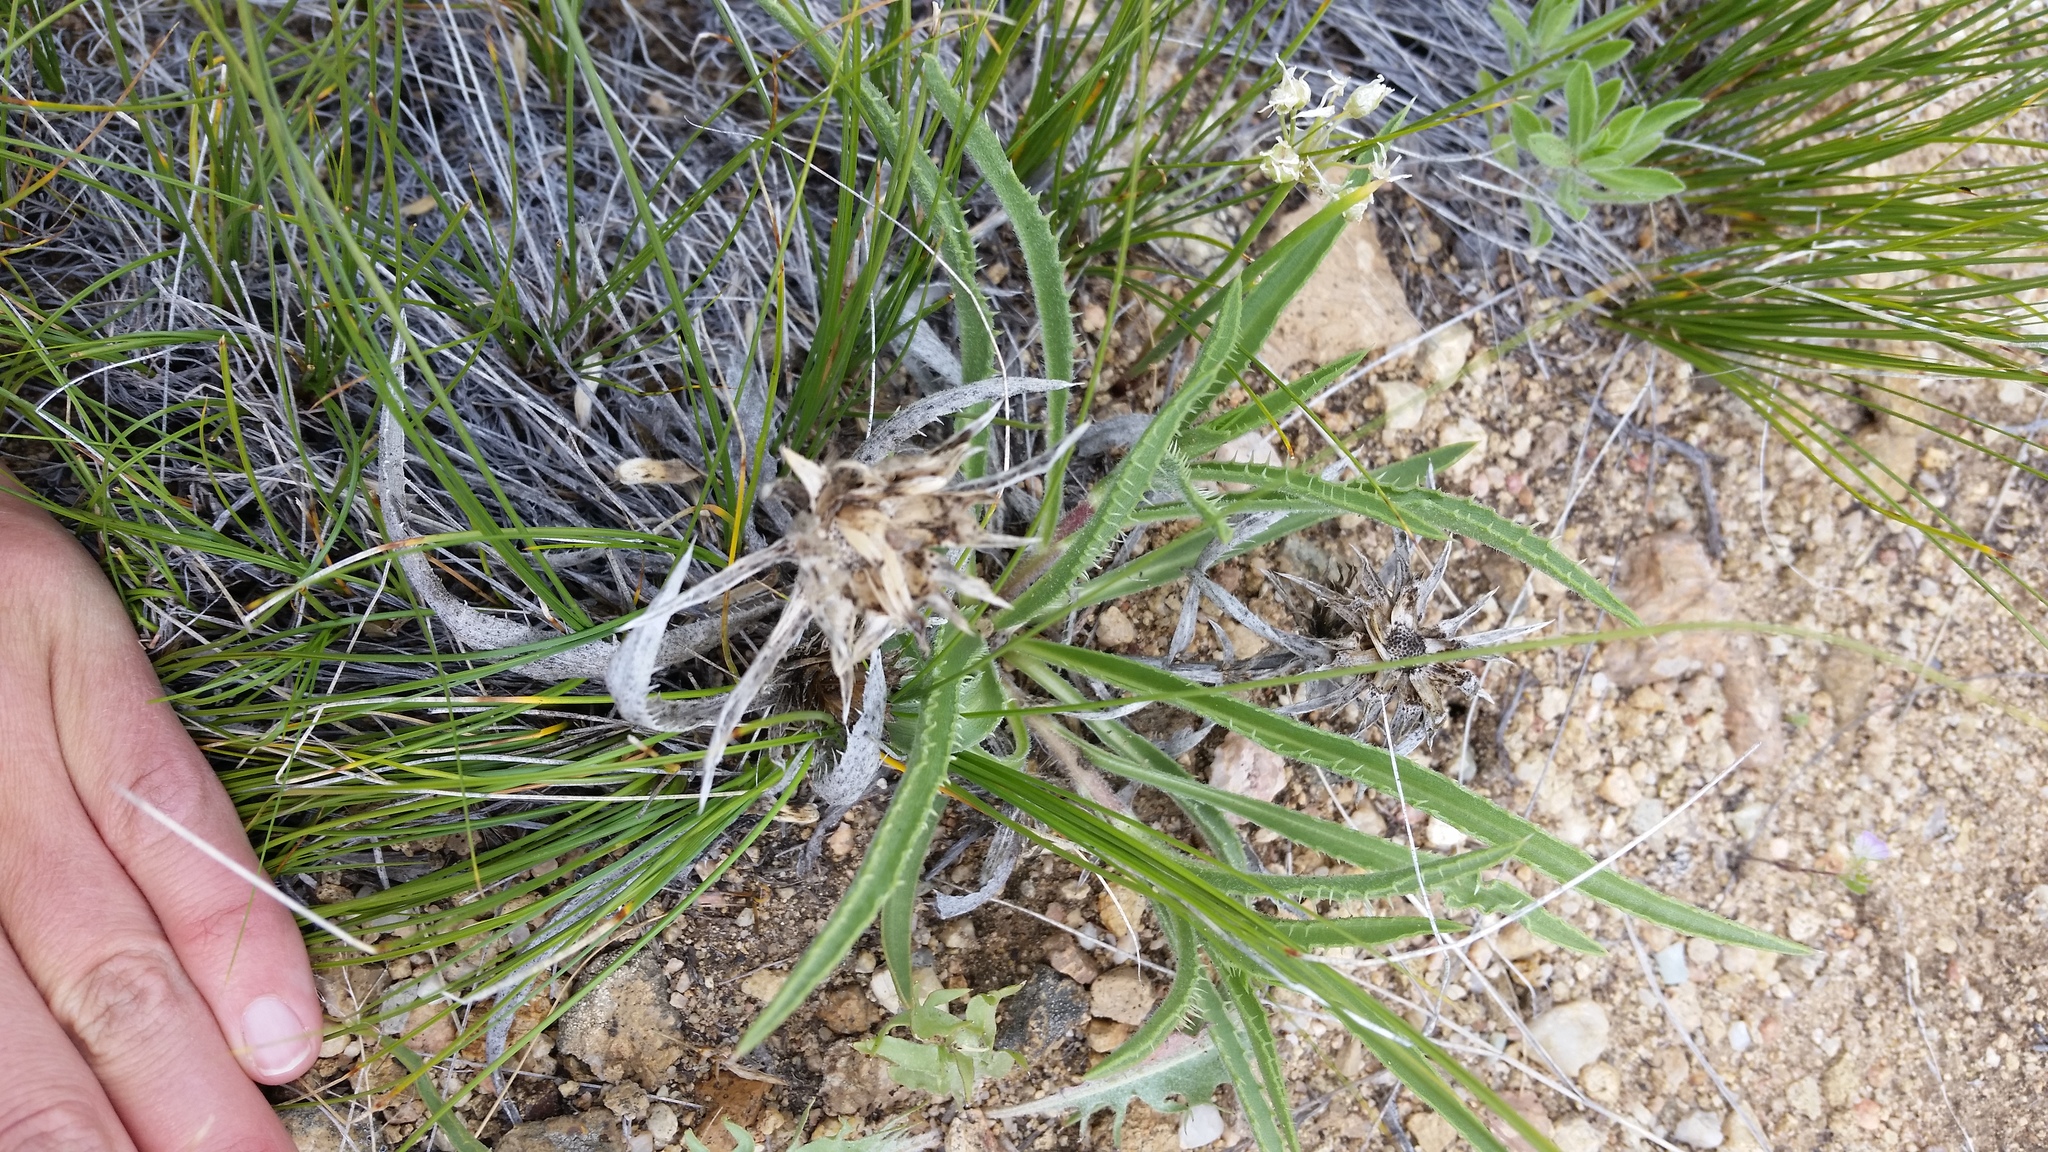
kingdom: Plantae
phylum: Tracheophyta
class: Magnoliopsida
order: Asterales
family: Asteraceae
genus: Pyrrocoma
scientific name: Pyrrocoma carthamoides
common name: Large-flower goldenweed
